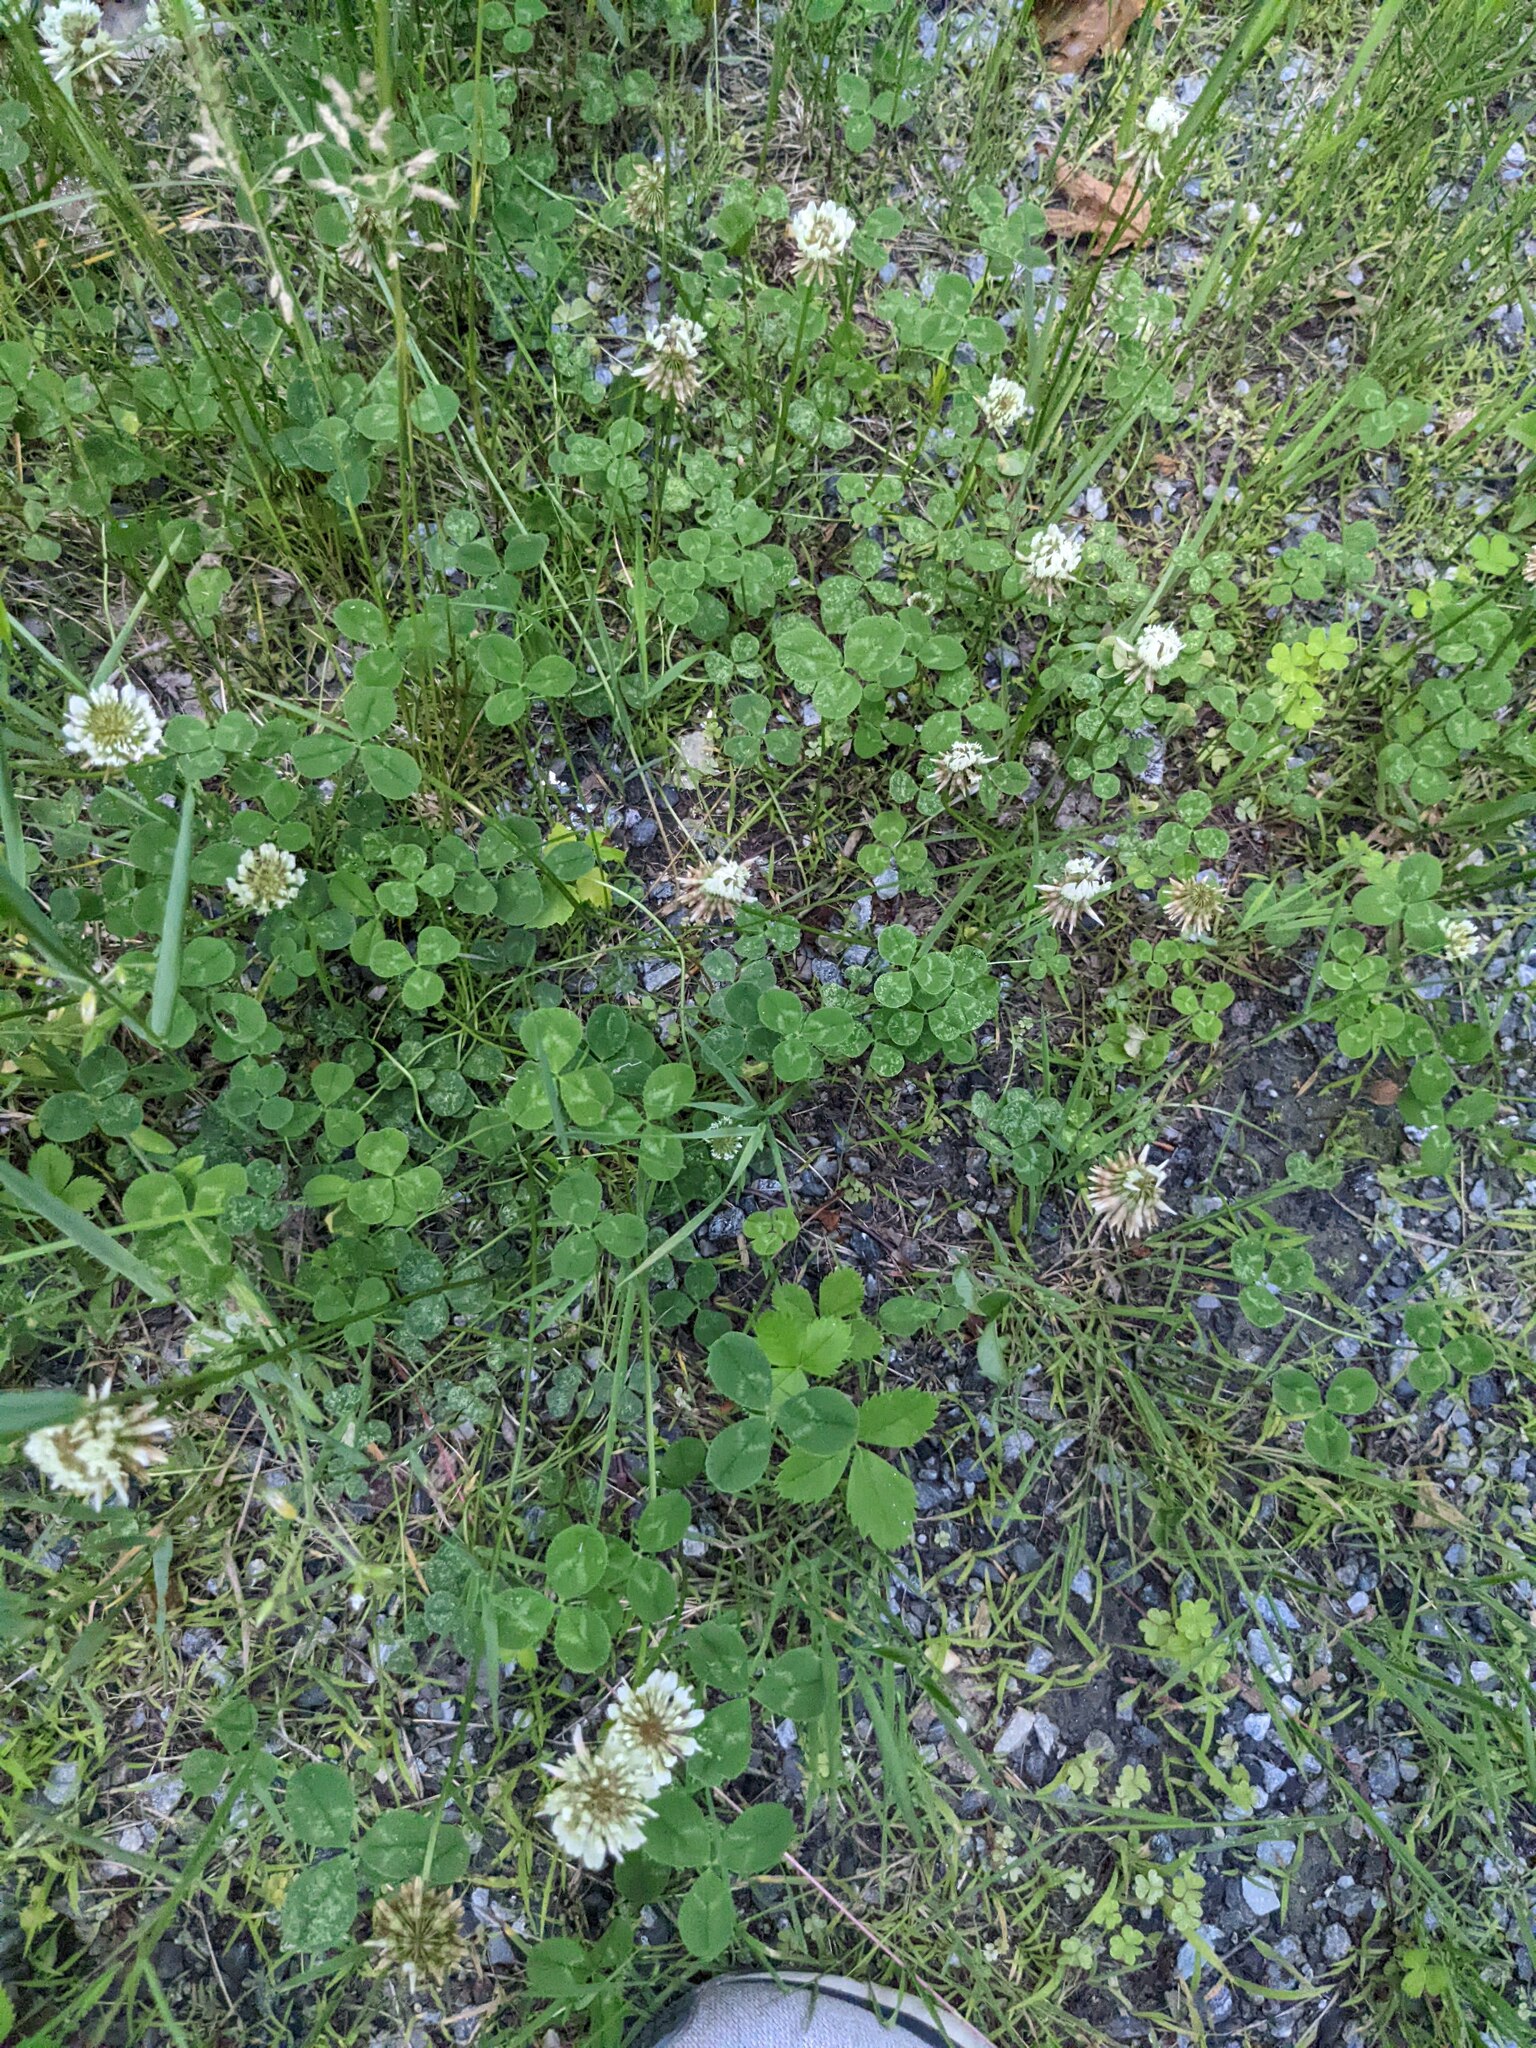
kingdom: Plantae
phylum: Tracheophyta
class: Magnoliopsida
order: Fabales
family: Fabaceae
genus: Trifolium
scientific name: Trifolium repens
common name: White clover
